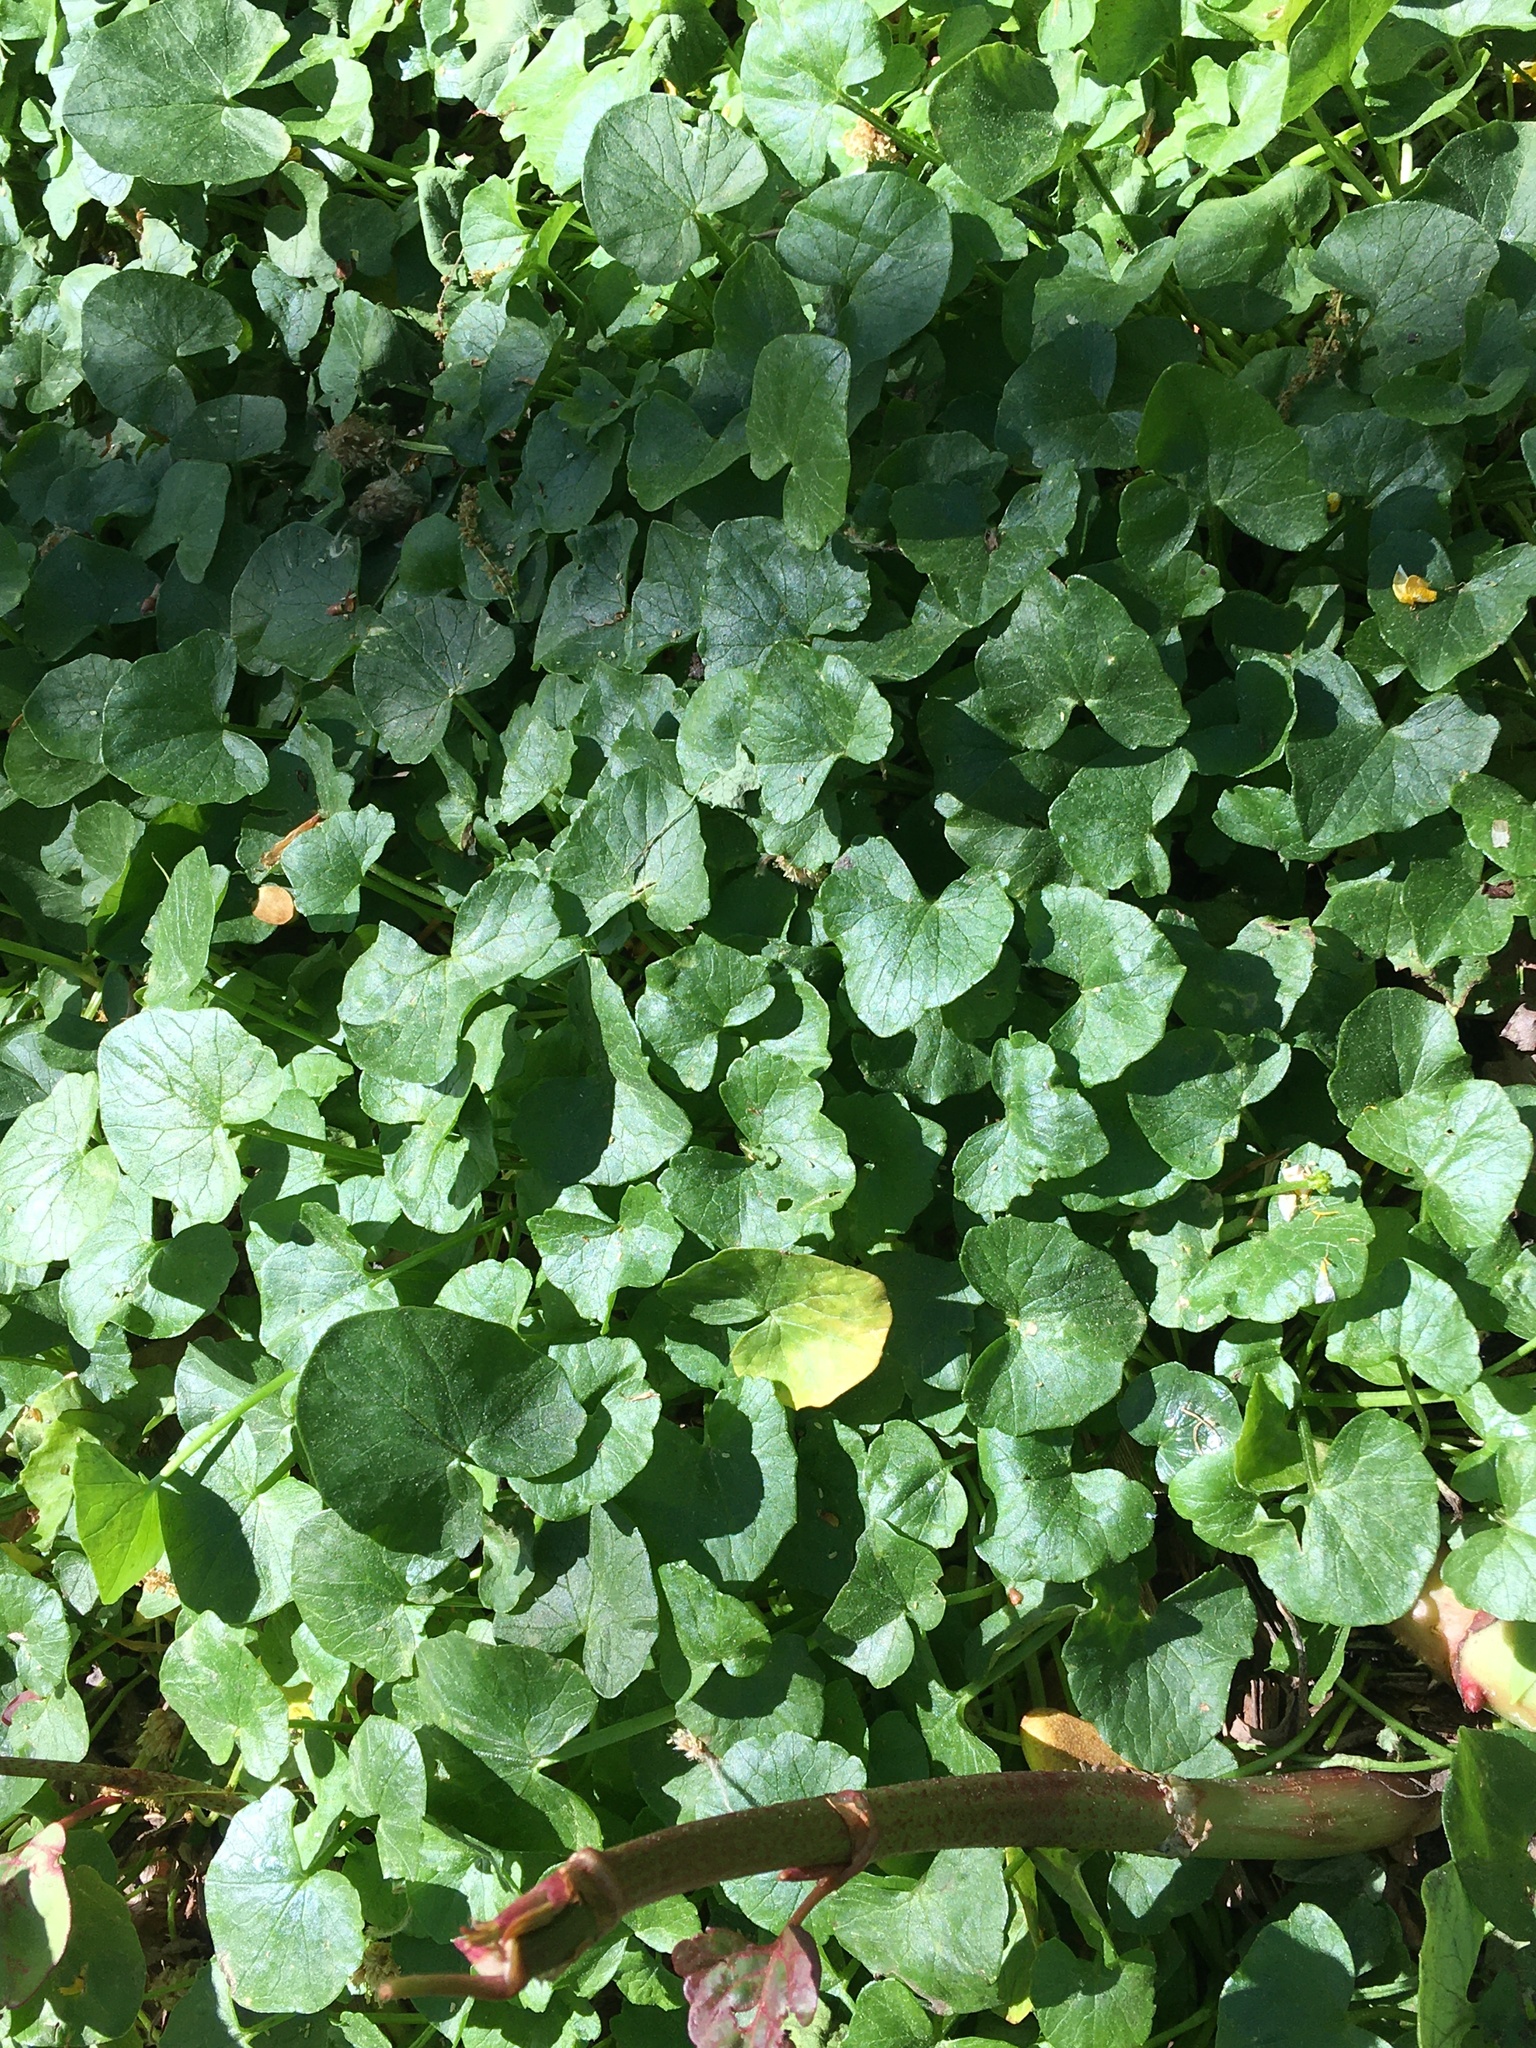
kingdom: Plantae
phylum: Tracheophyta
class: Magnoliopsida
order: Ranunculales
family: Ranunculaceae
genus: Ficaria
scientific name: Ficaria verna
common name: Lesser celandine
